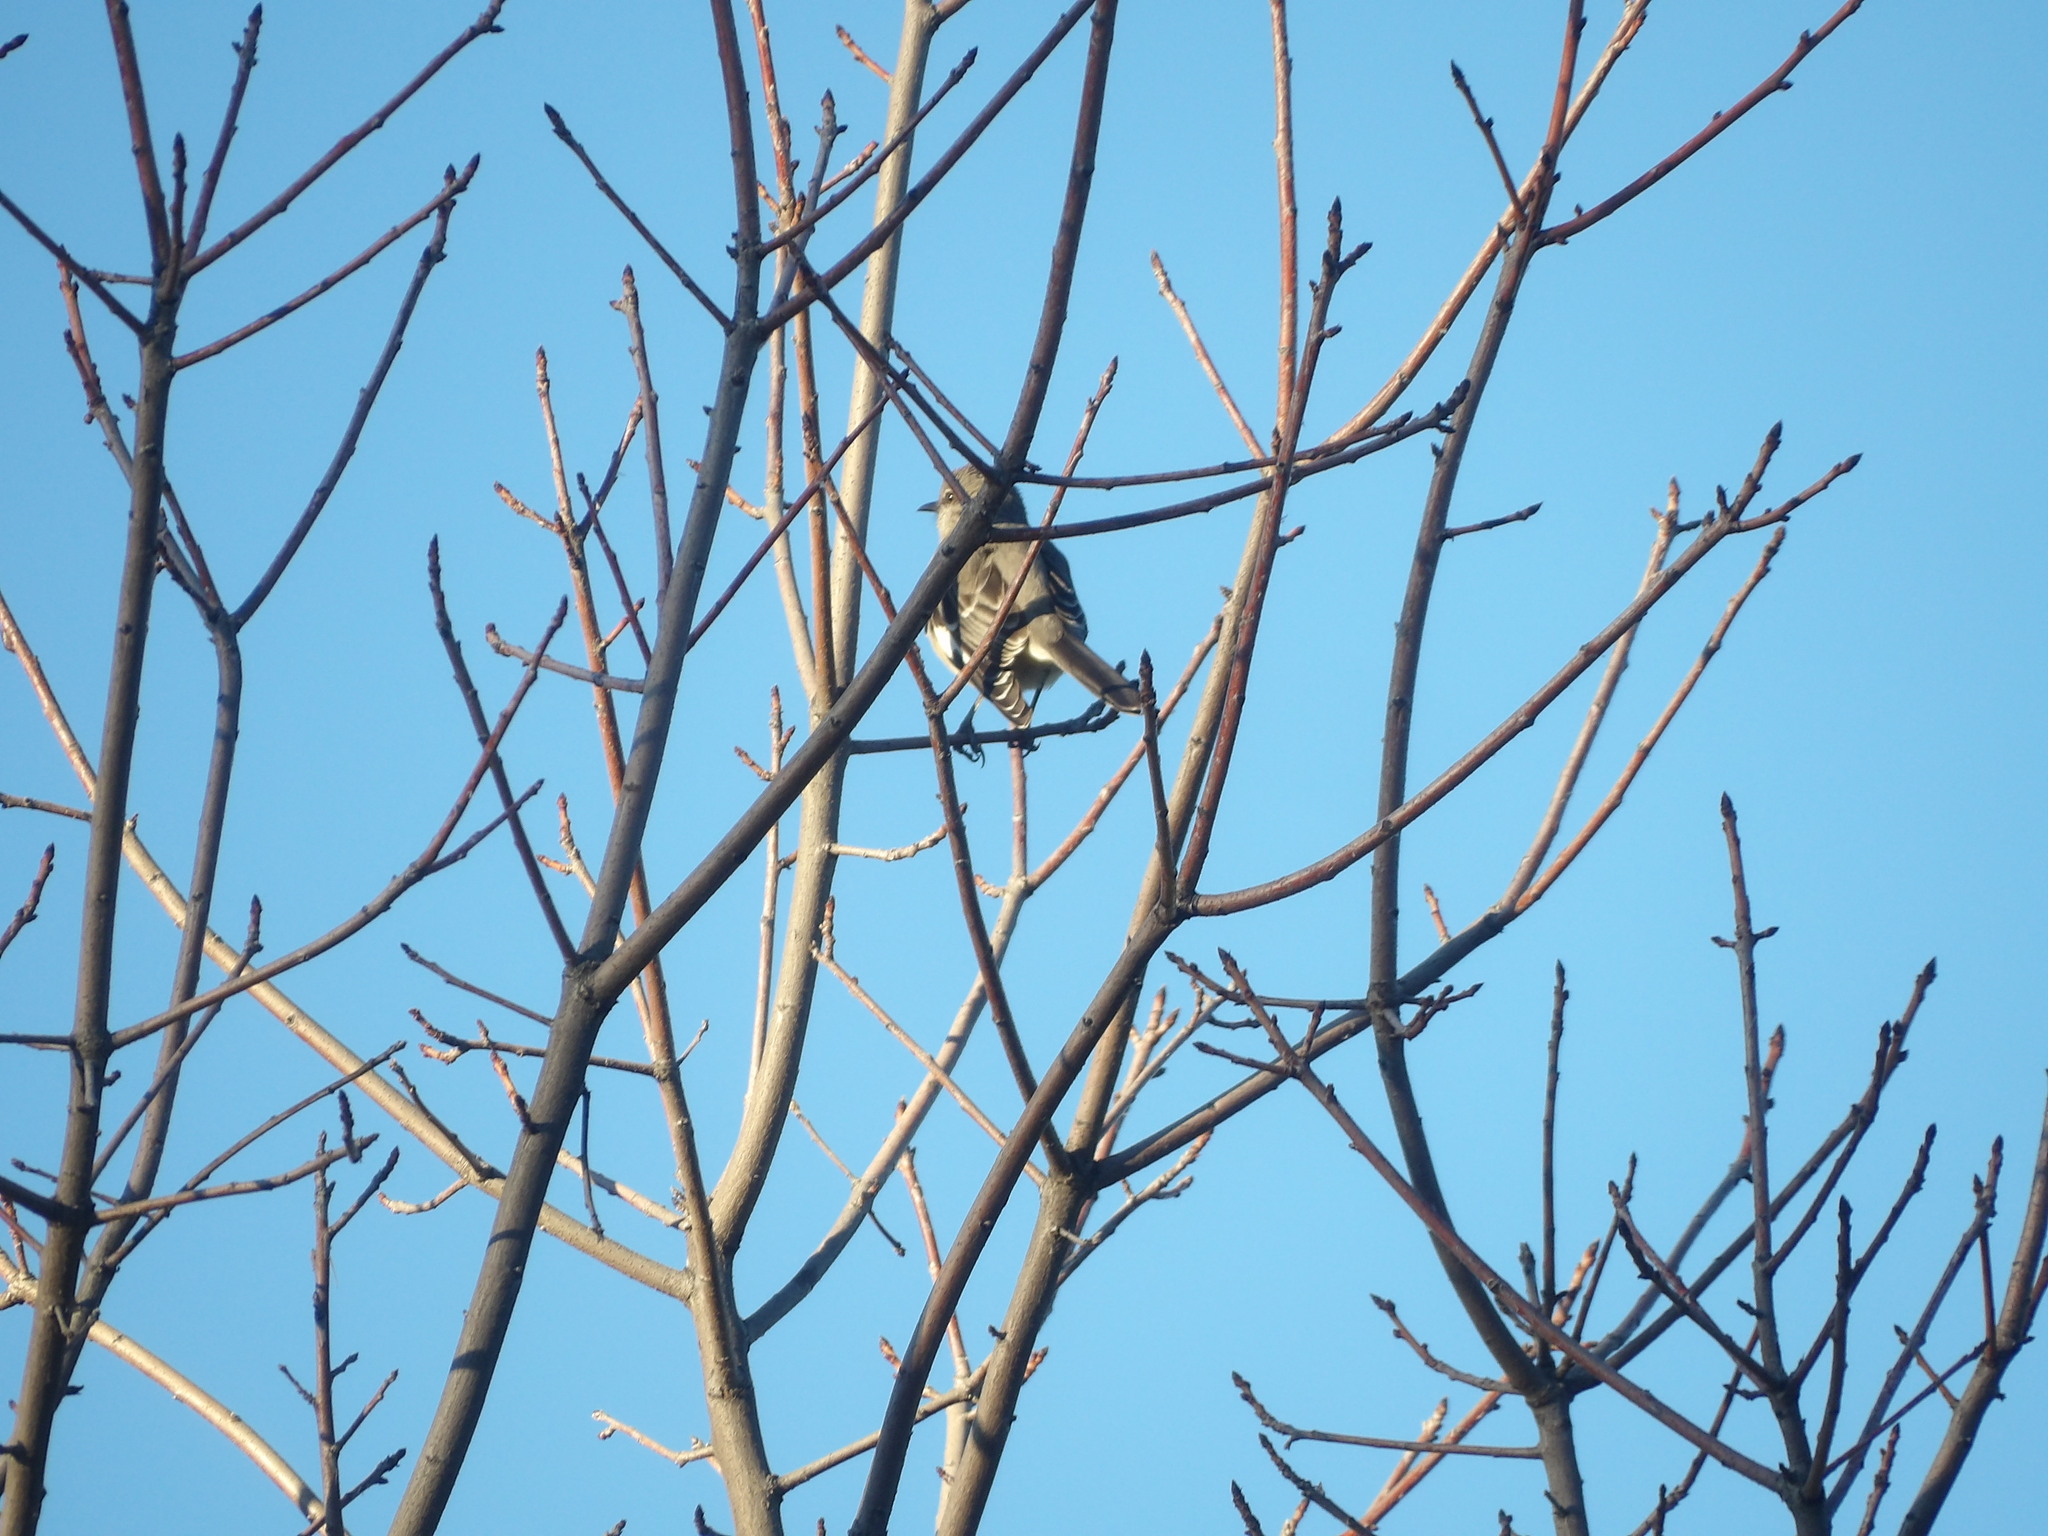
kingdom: Animalia
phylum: Chordata
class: Aves
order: Passeriformes
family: Mimidae
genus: Mimus
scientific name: Mimus polyglottos
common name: Northern mockingbird
